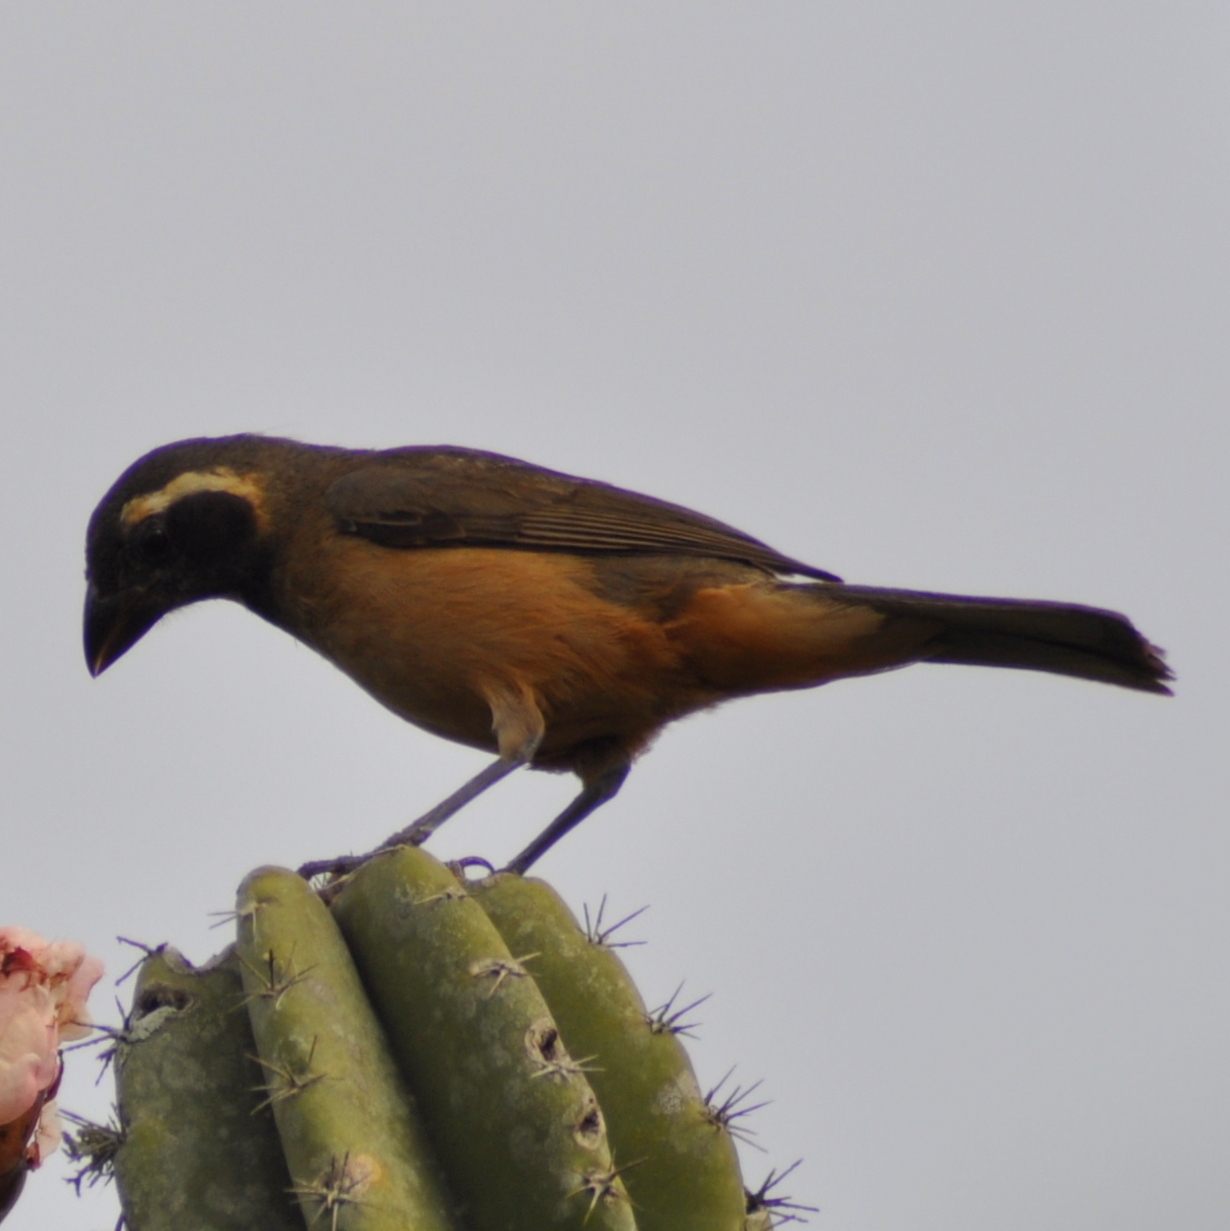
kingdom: Animalia
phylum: Chordata
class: Aves
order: Passeriformes
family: Thraupidae
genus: Saltator
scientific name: Saltator aurantiirostris
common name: Golden-billed saltator
